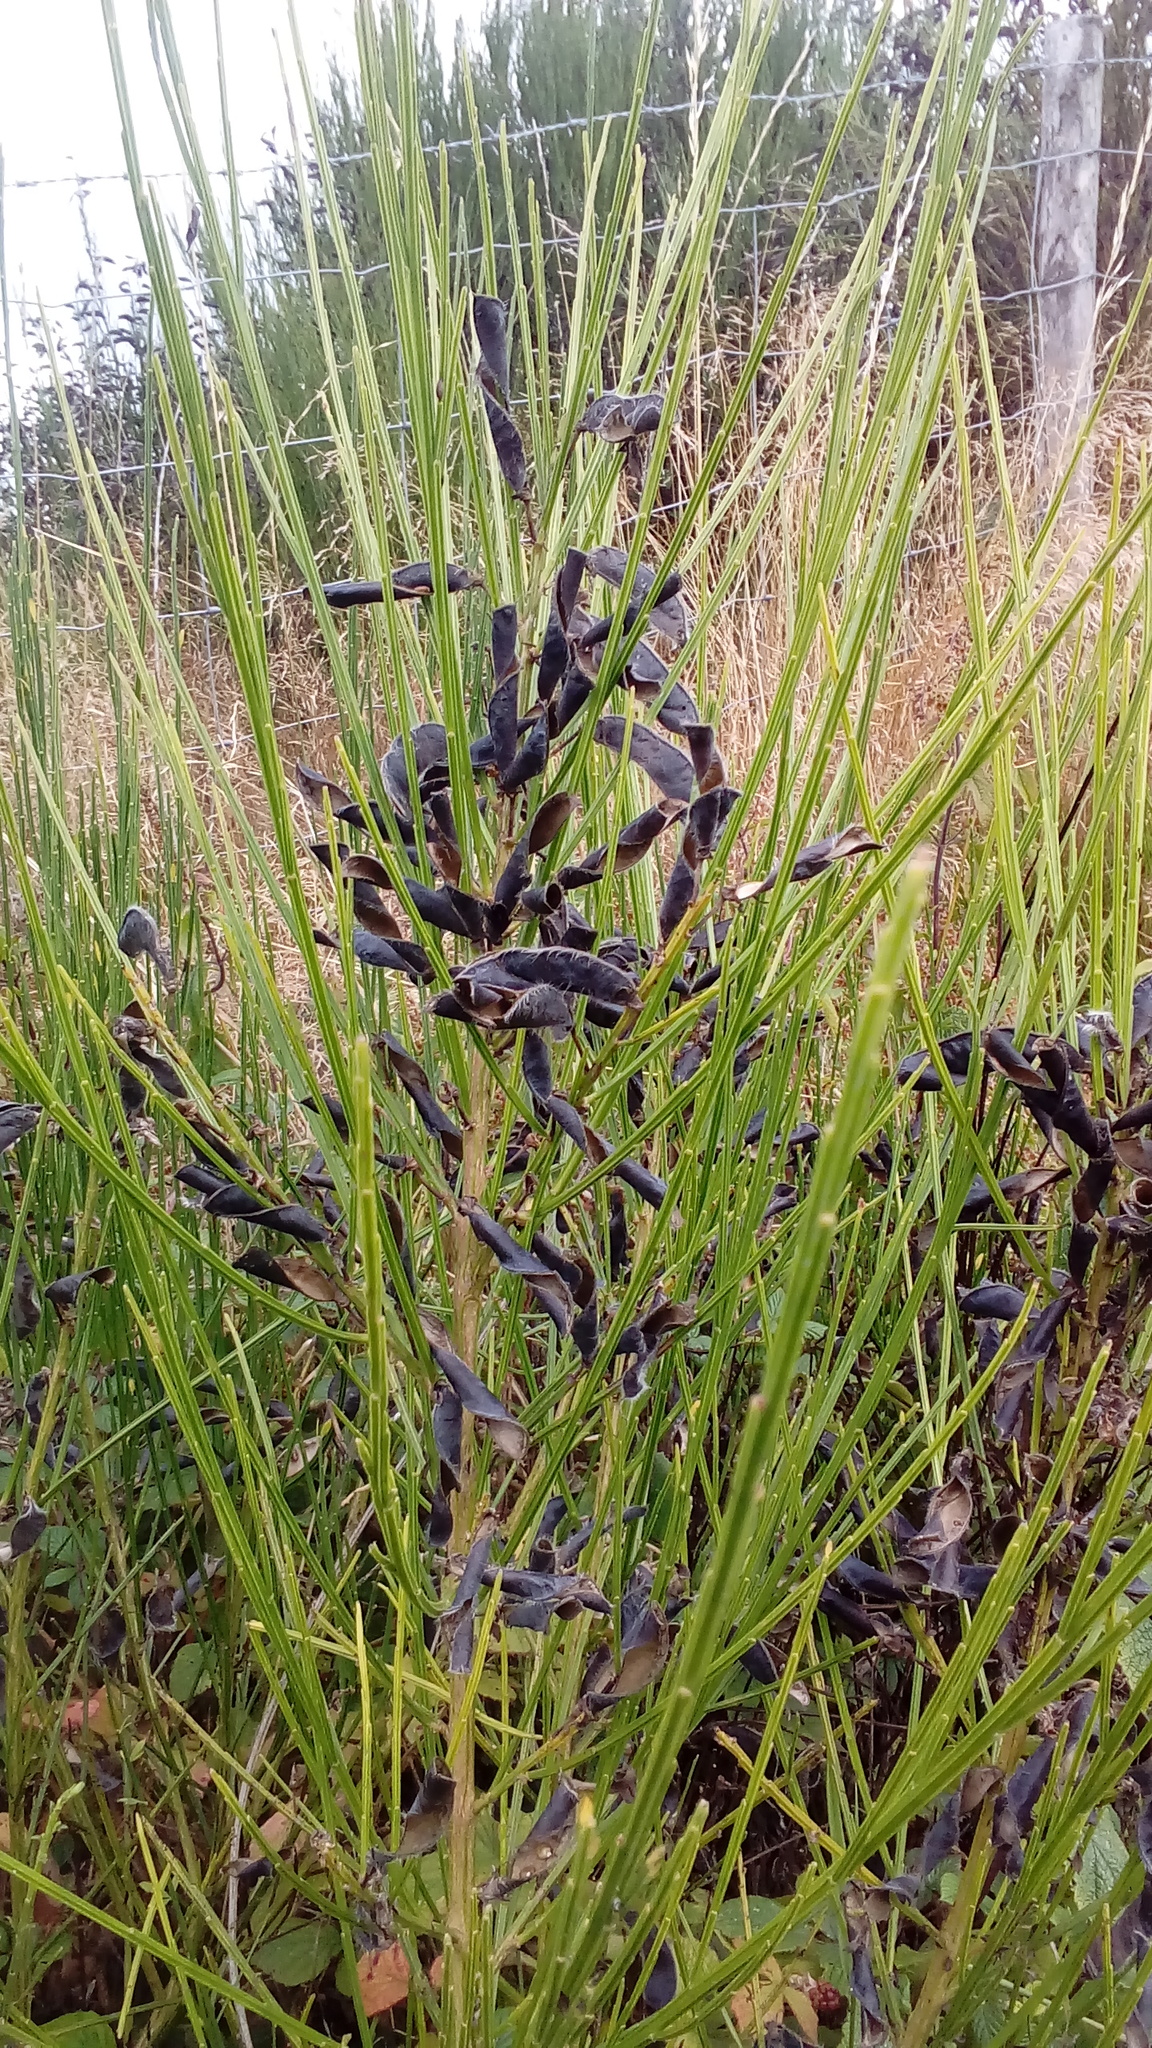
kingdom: Plantae
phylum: Tracheophyta
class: Magnoliopsida
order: Fabales
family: Fabaceae
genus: Cytisus
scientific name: Cytisus scoparius
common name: Scotch broom
